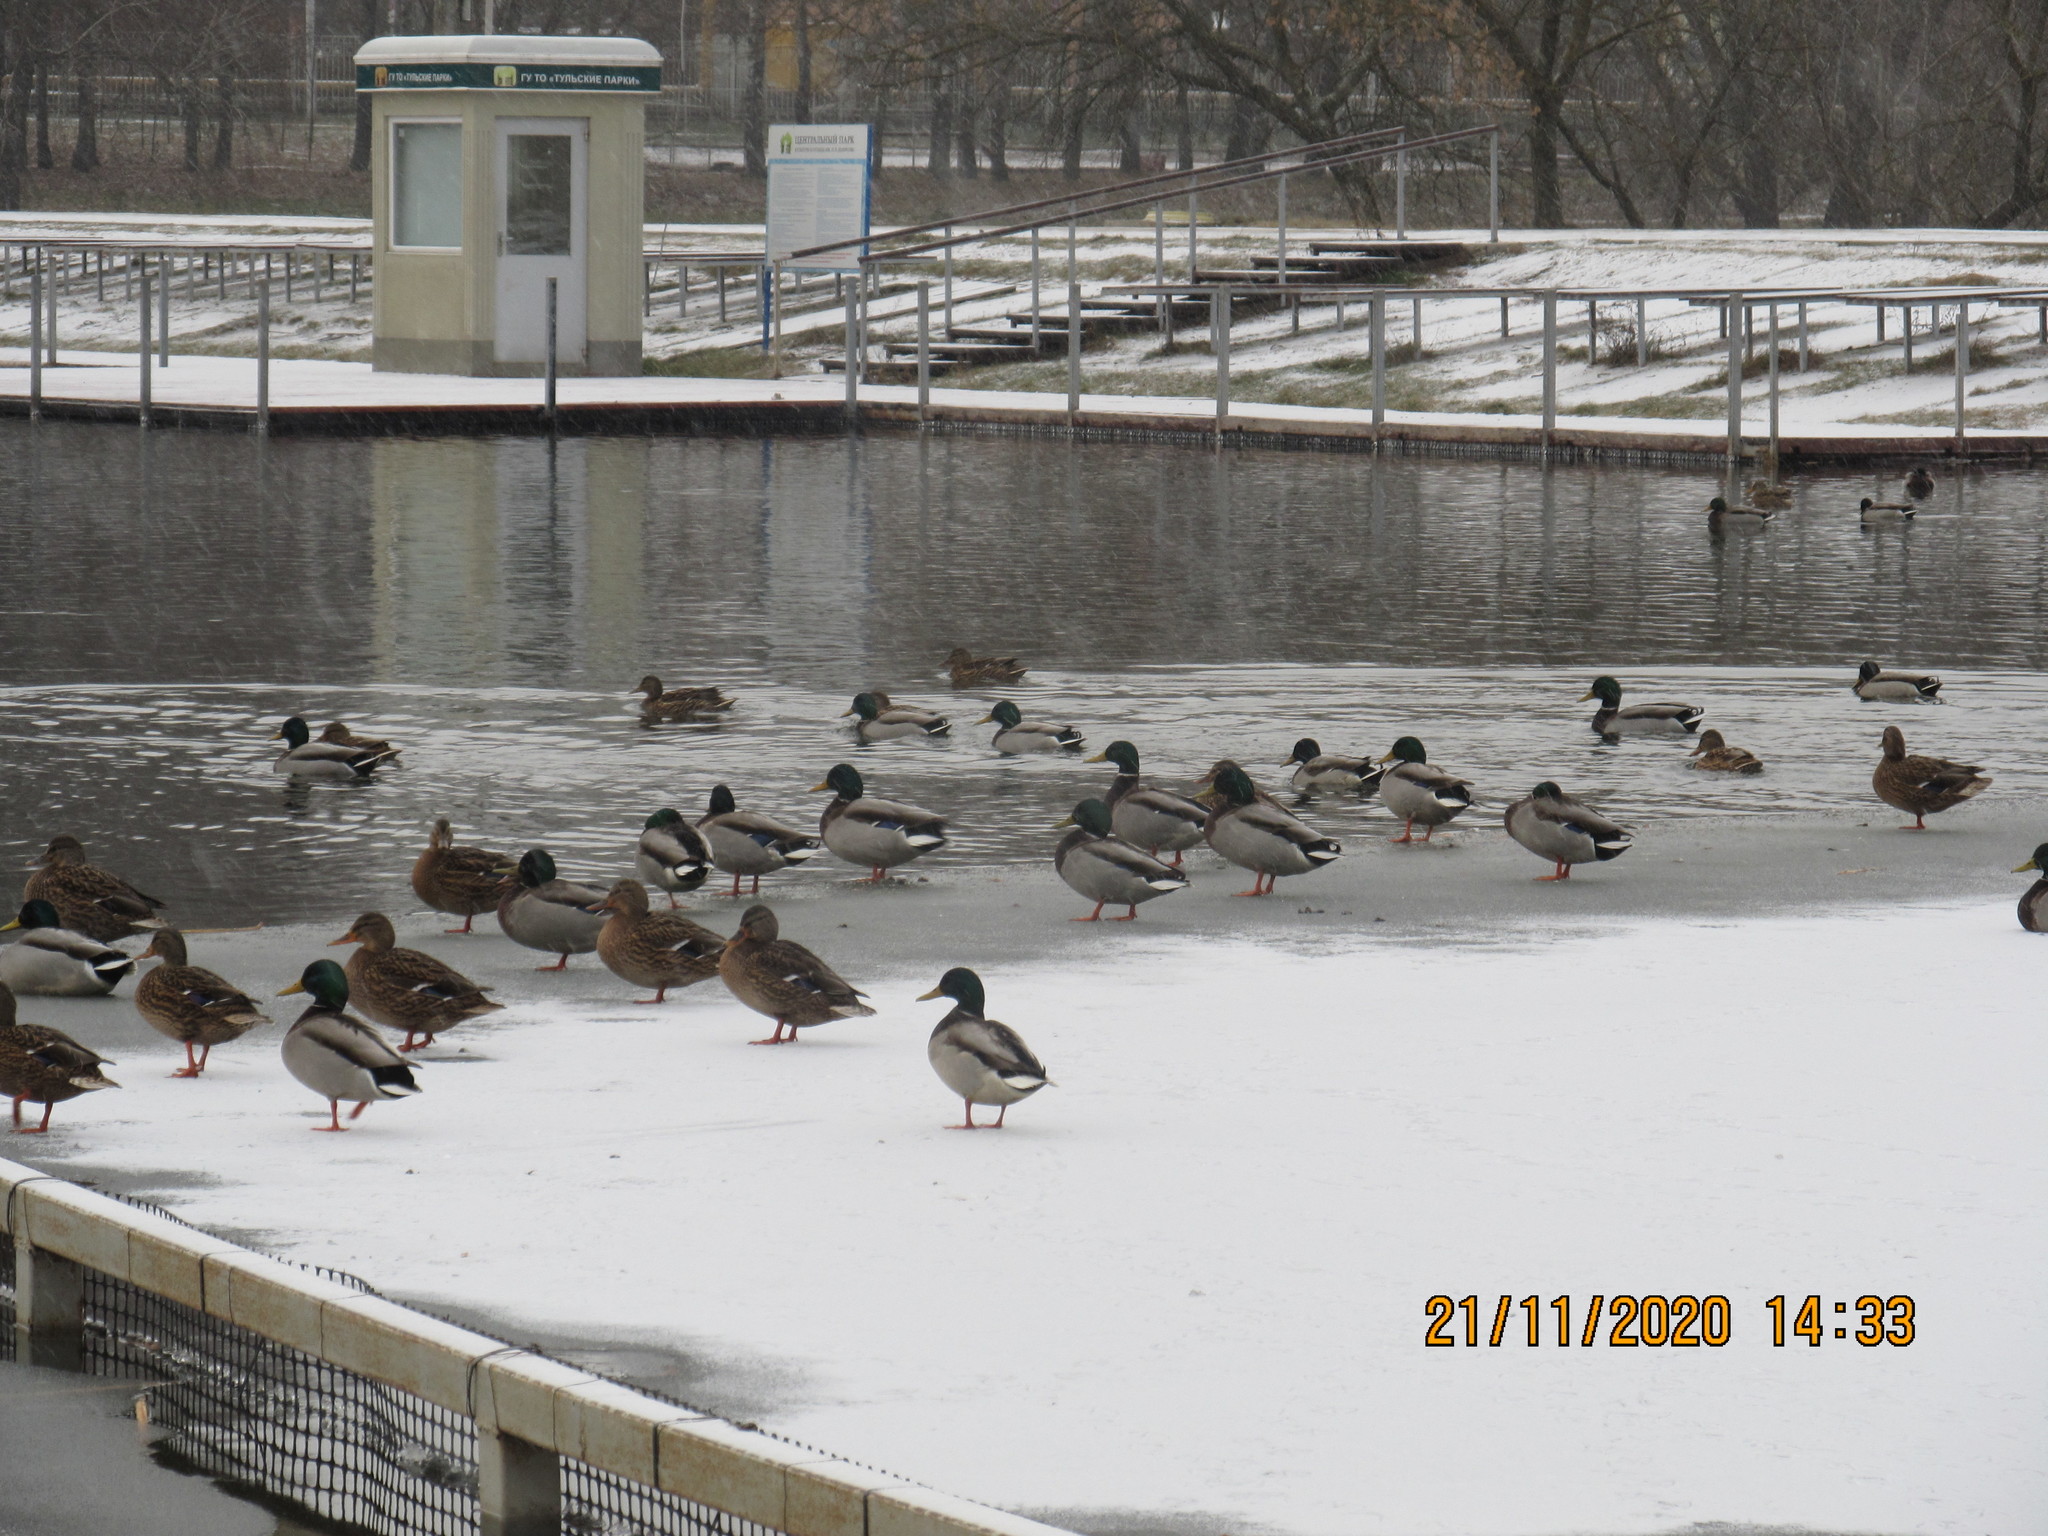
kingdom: Animalia
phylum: Chordata
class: Aves
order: Anseriformes
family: Anatidae
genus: Anas
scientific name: Anas platyrhynchos
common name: Mallard
